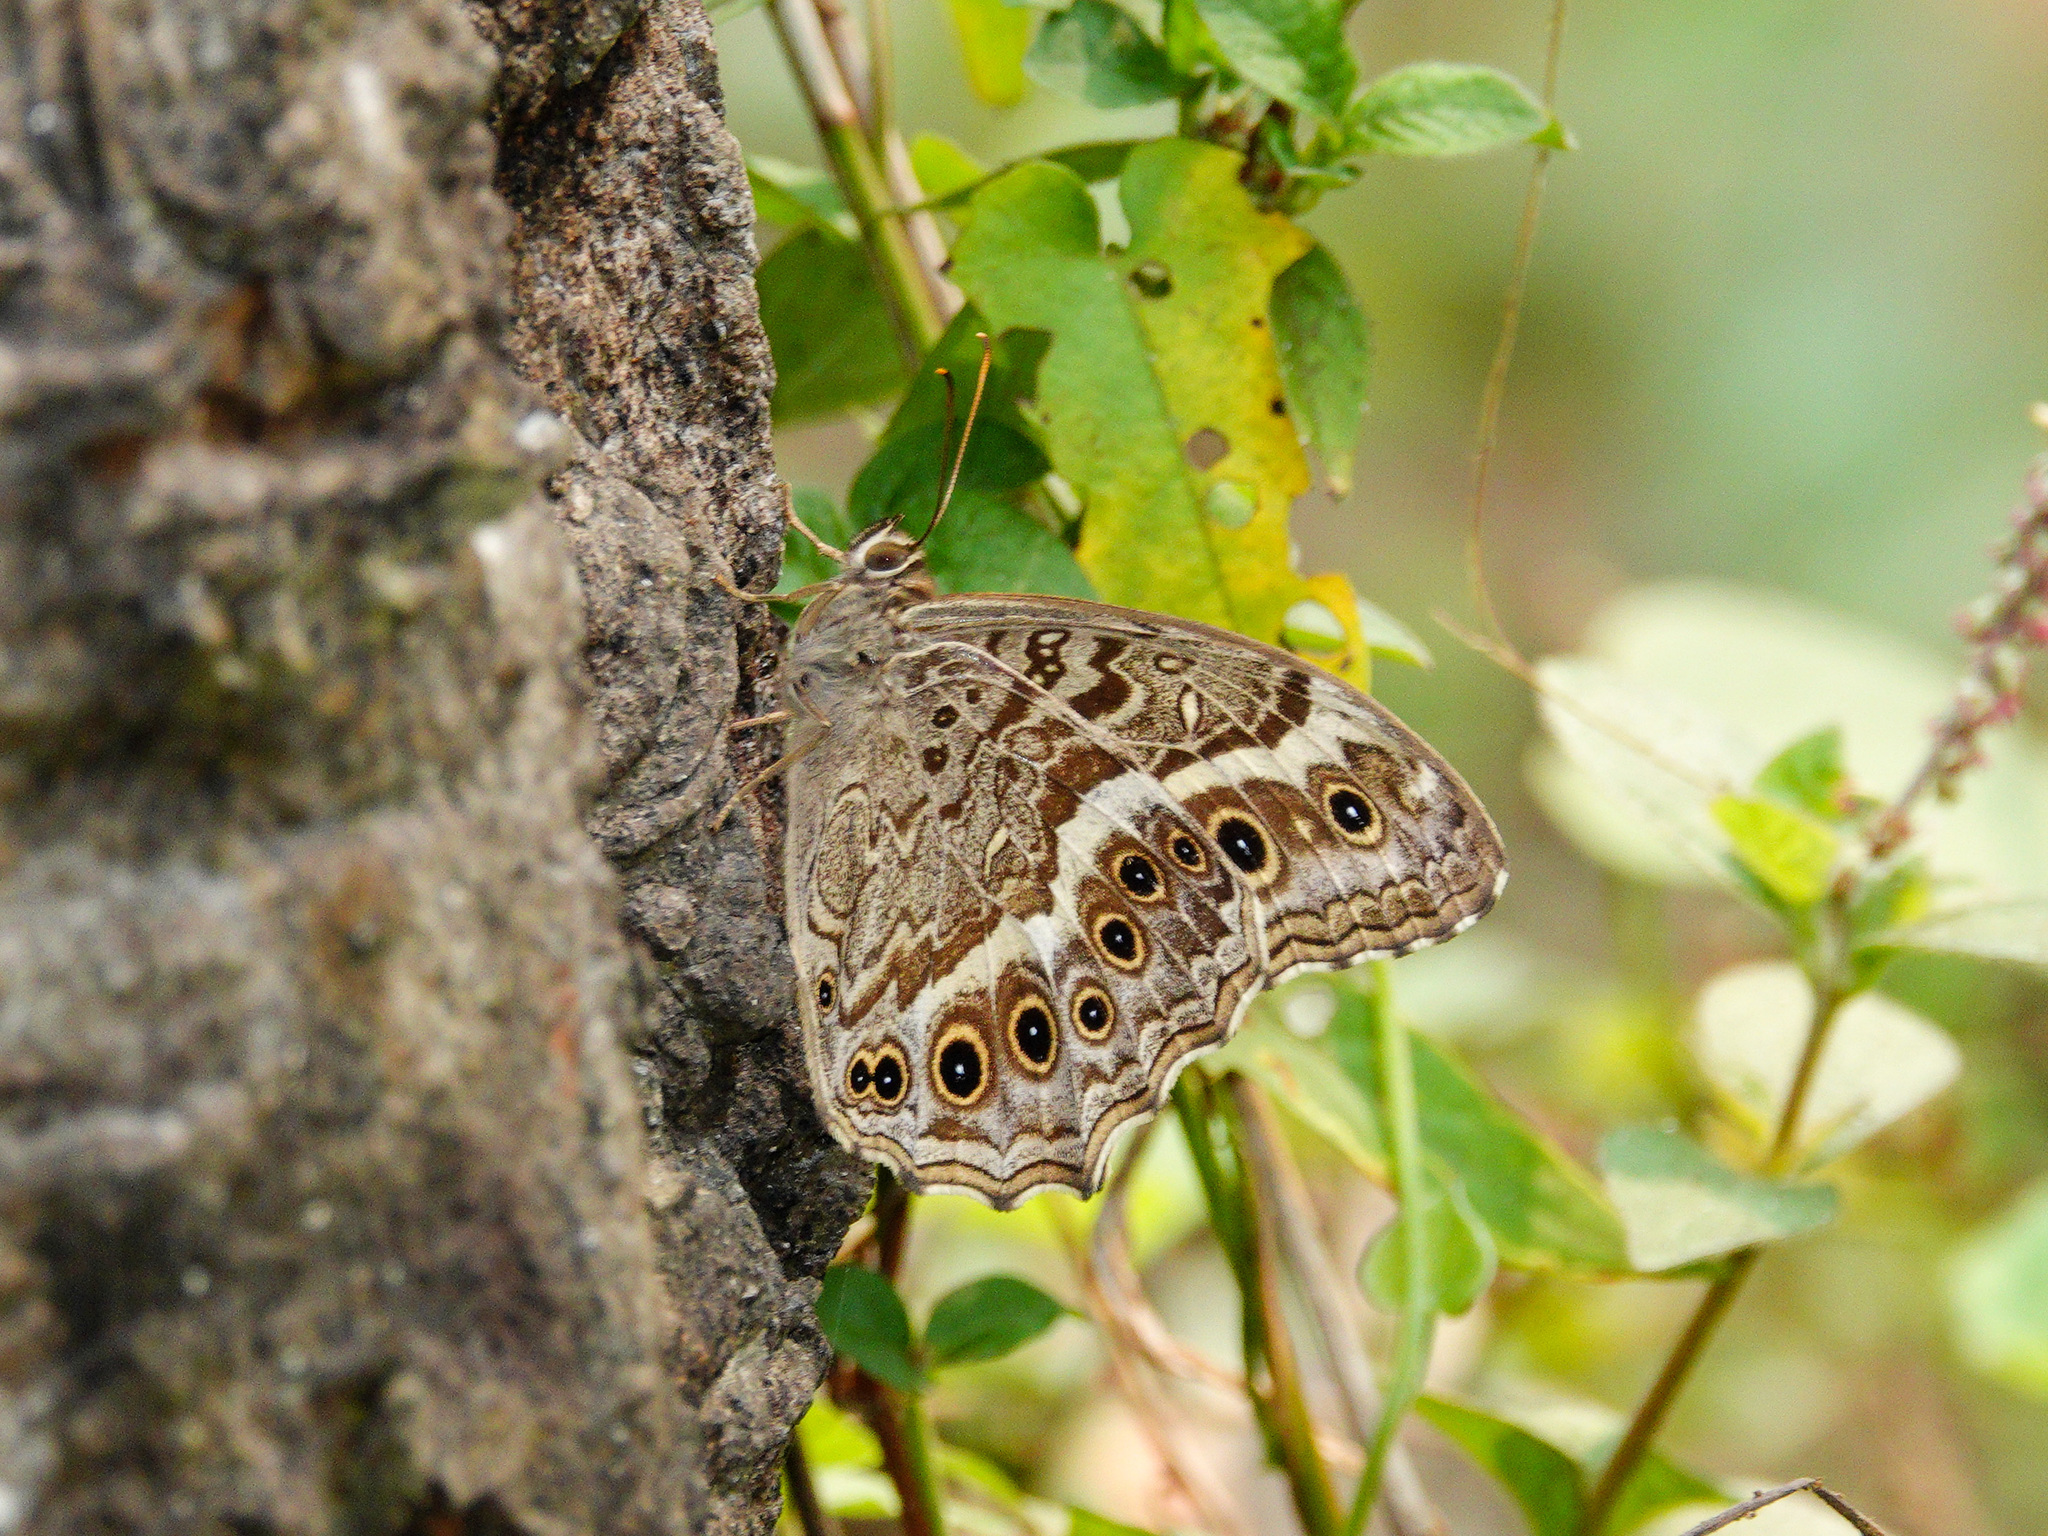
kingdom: Animalia
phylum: Arthropoda
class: Insecta
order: Lepidoptera
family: Nymphalidae
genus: Neope
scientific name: Neope muirheadii
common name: Black-spotted labyrinth
